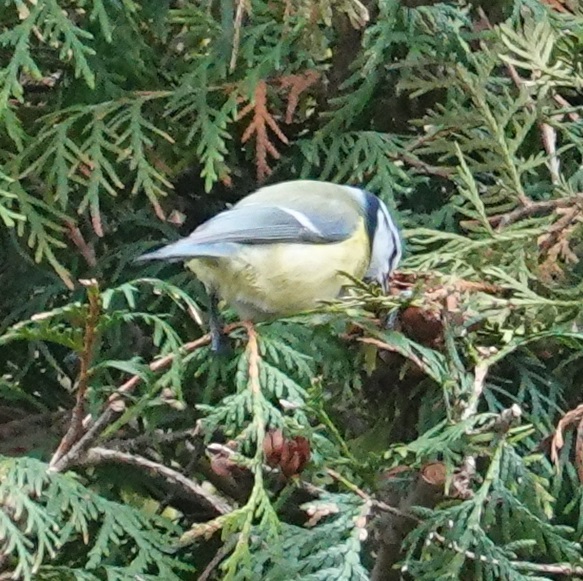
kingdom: Animalia
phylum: Chordata
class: Aves
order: Passeriformes
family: Paridae
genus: Cyanistes
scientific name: Cyanistes caeruleus
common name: Eurasian blue tit
